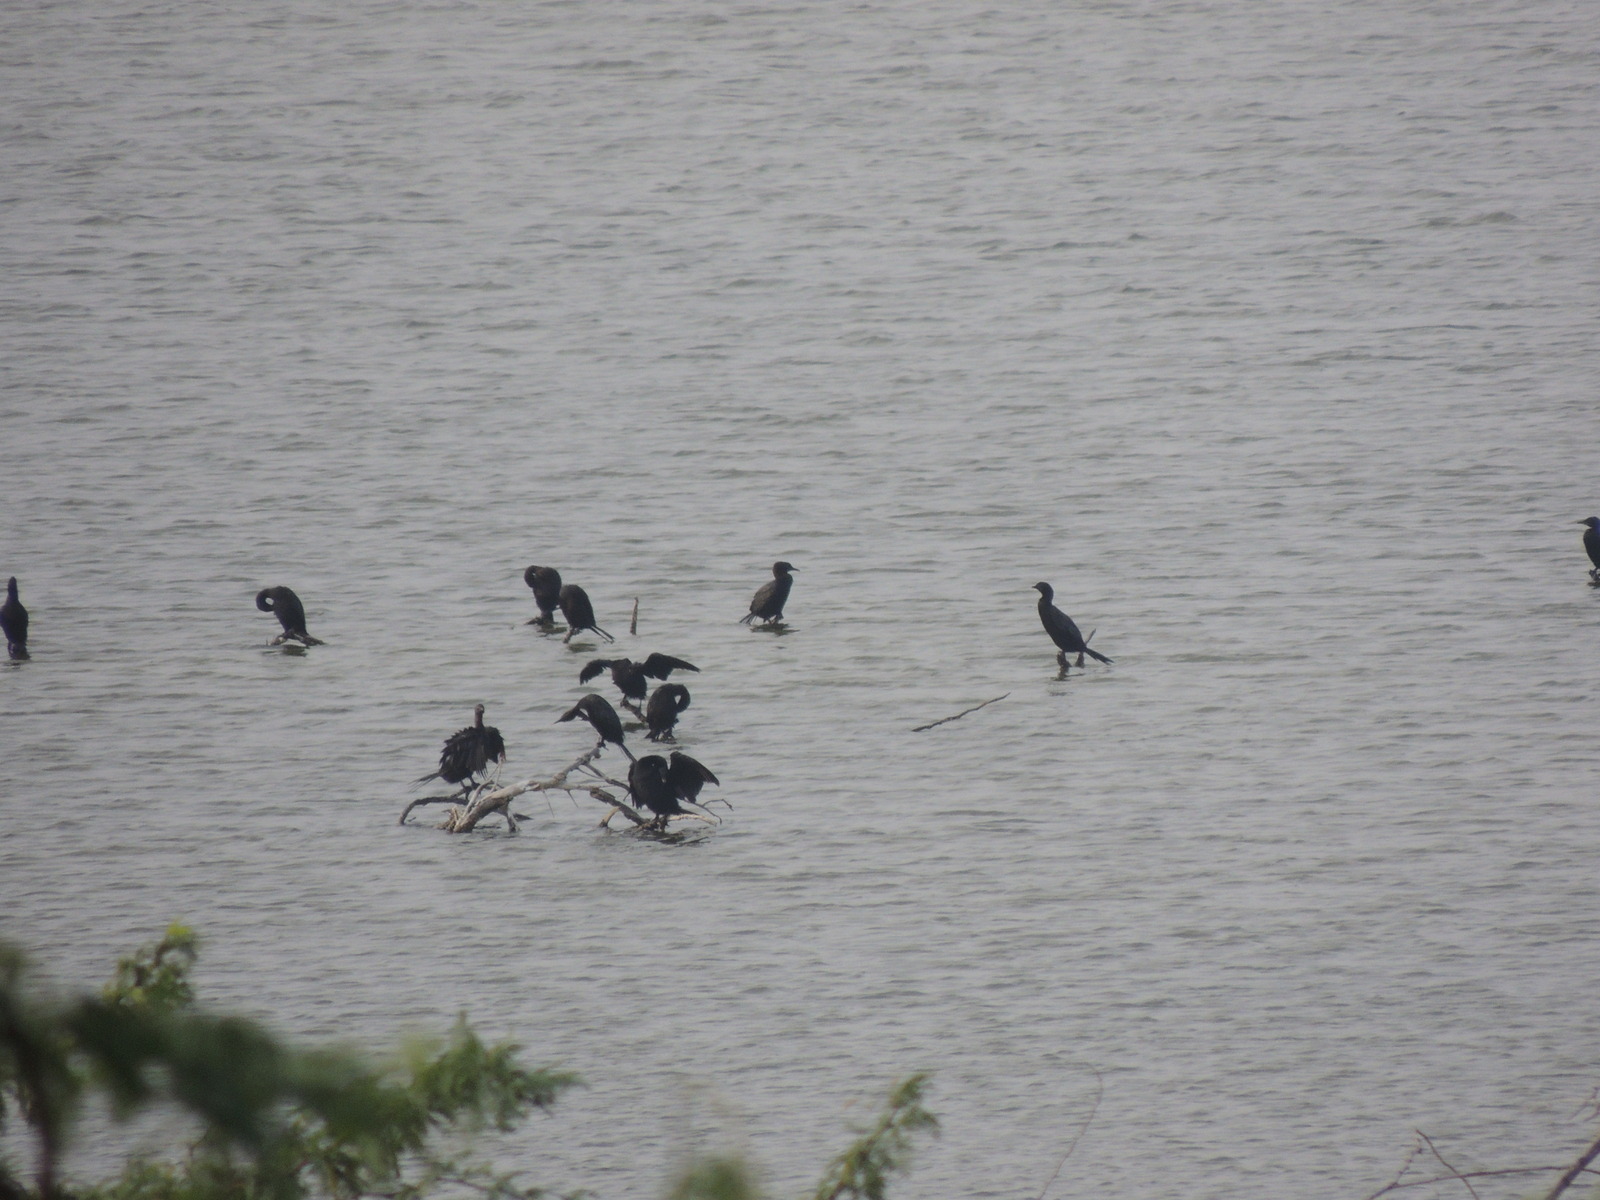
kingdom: Animalia
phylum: Chordata
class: Aves
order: Suliformes
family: Phalacrocoracidae
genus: Microcarbo
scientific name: Microcarbo niger
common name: Little cormorant
